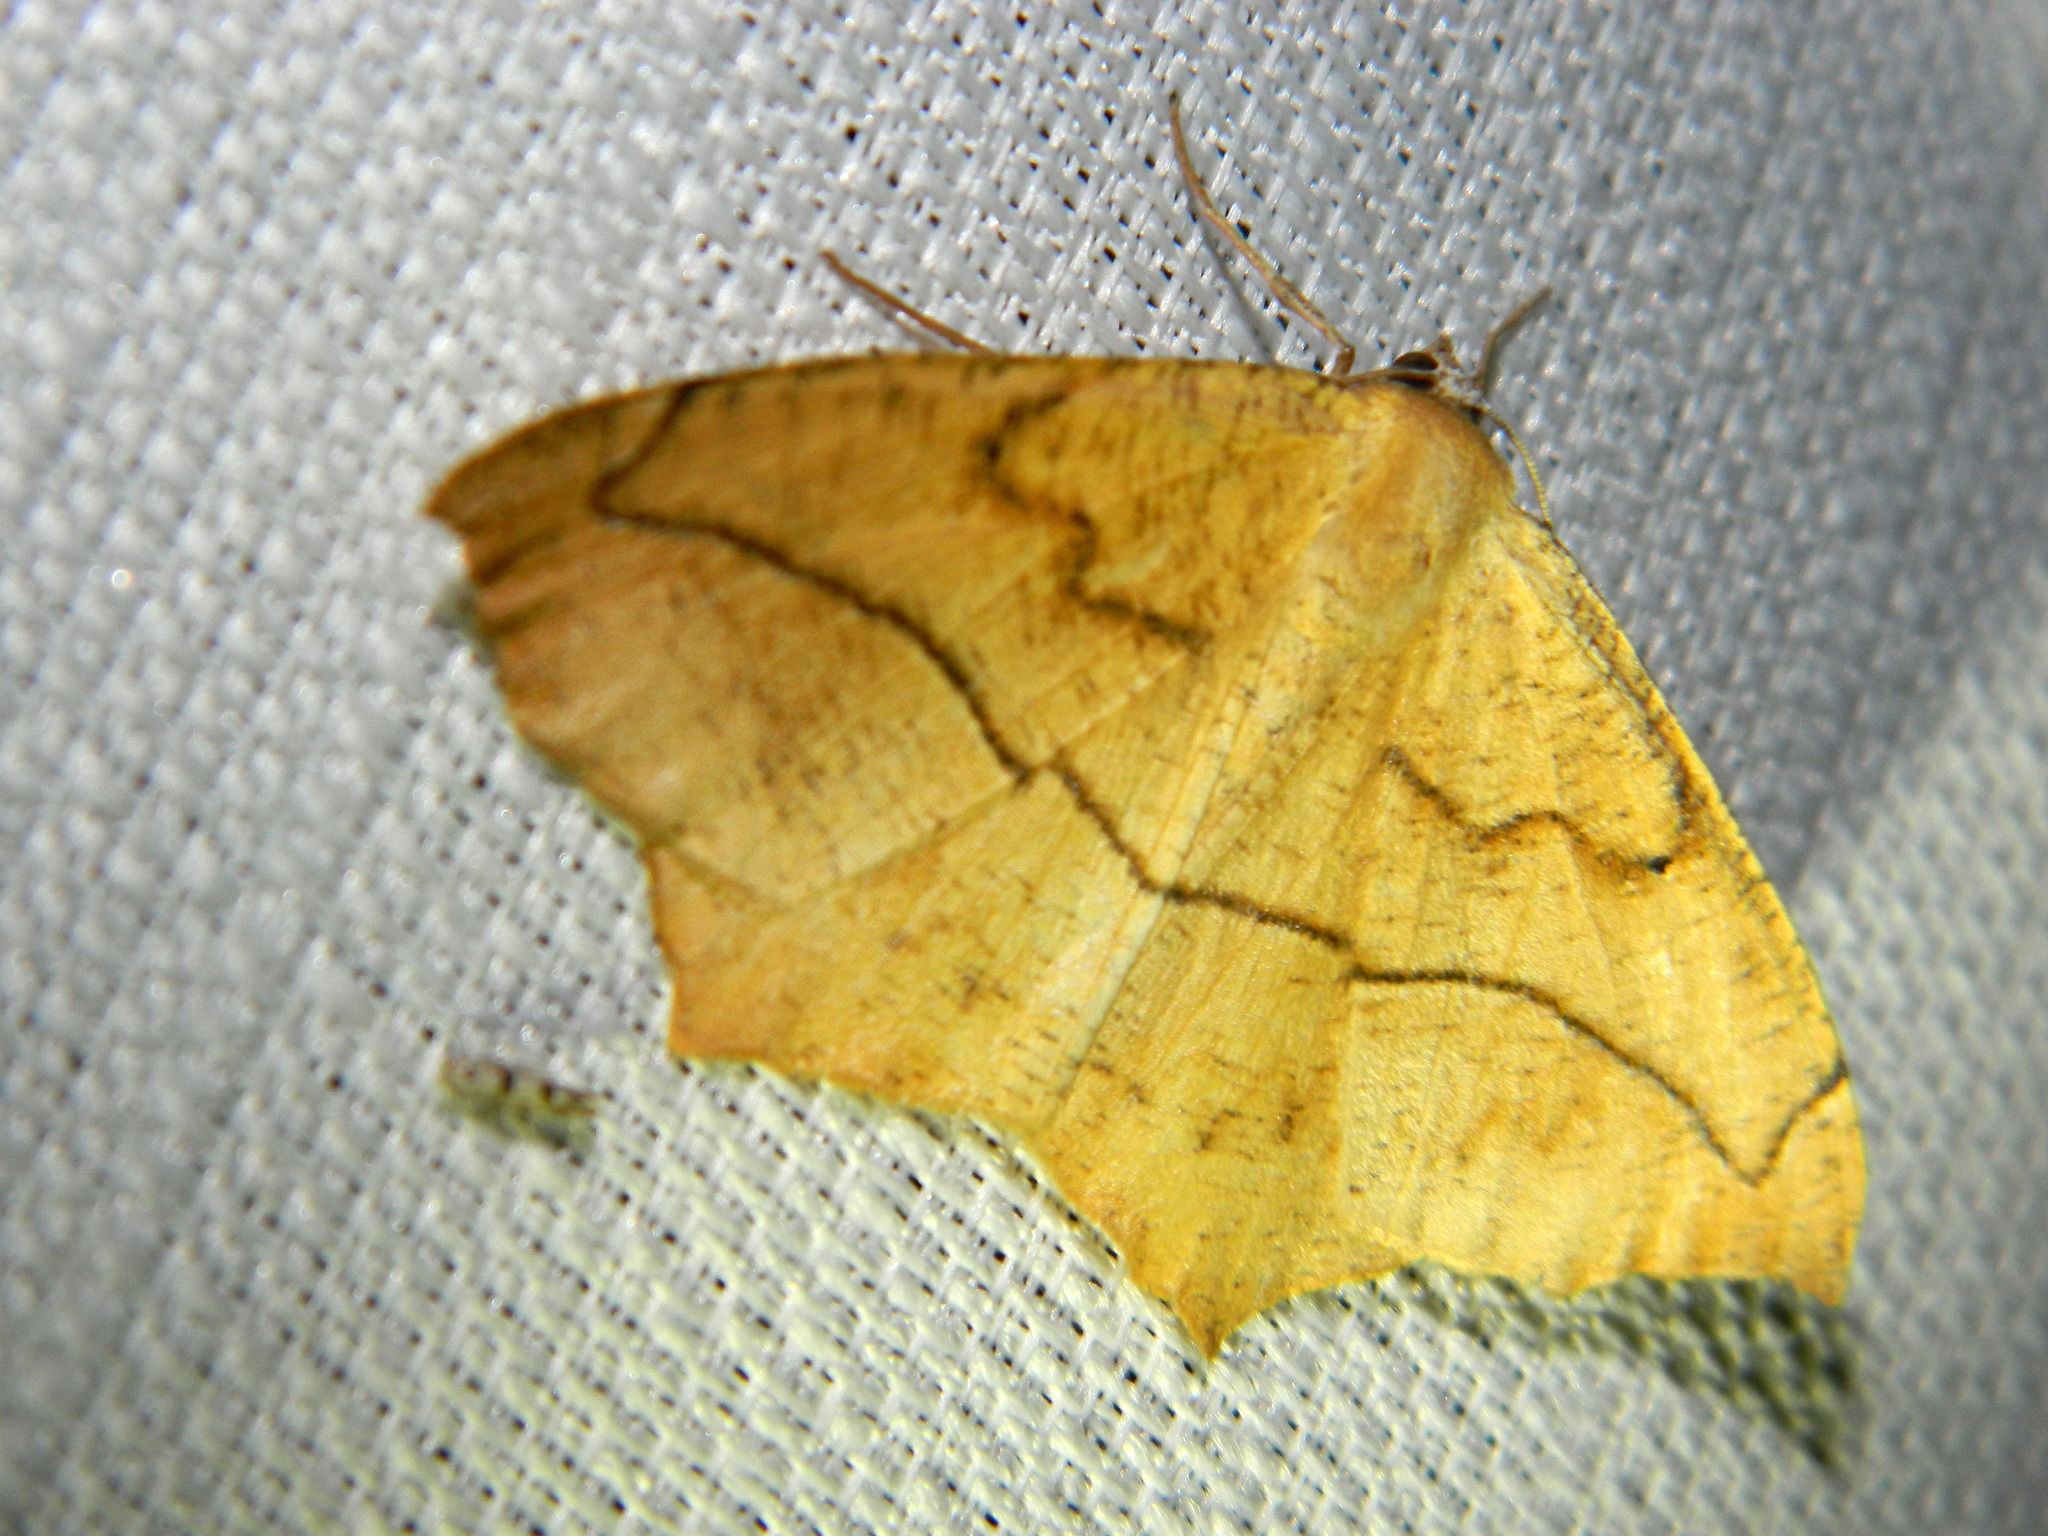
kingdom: Animalia
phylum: Arthropoda
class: Insecta
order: Lepidoptera
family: Geometridae
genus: Prochoerodes
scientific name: Prochoerodes lineola
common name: Large maple spanworm
